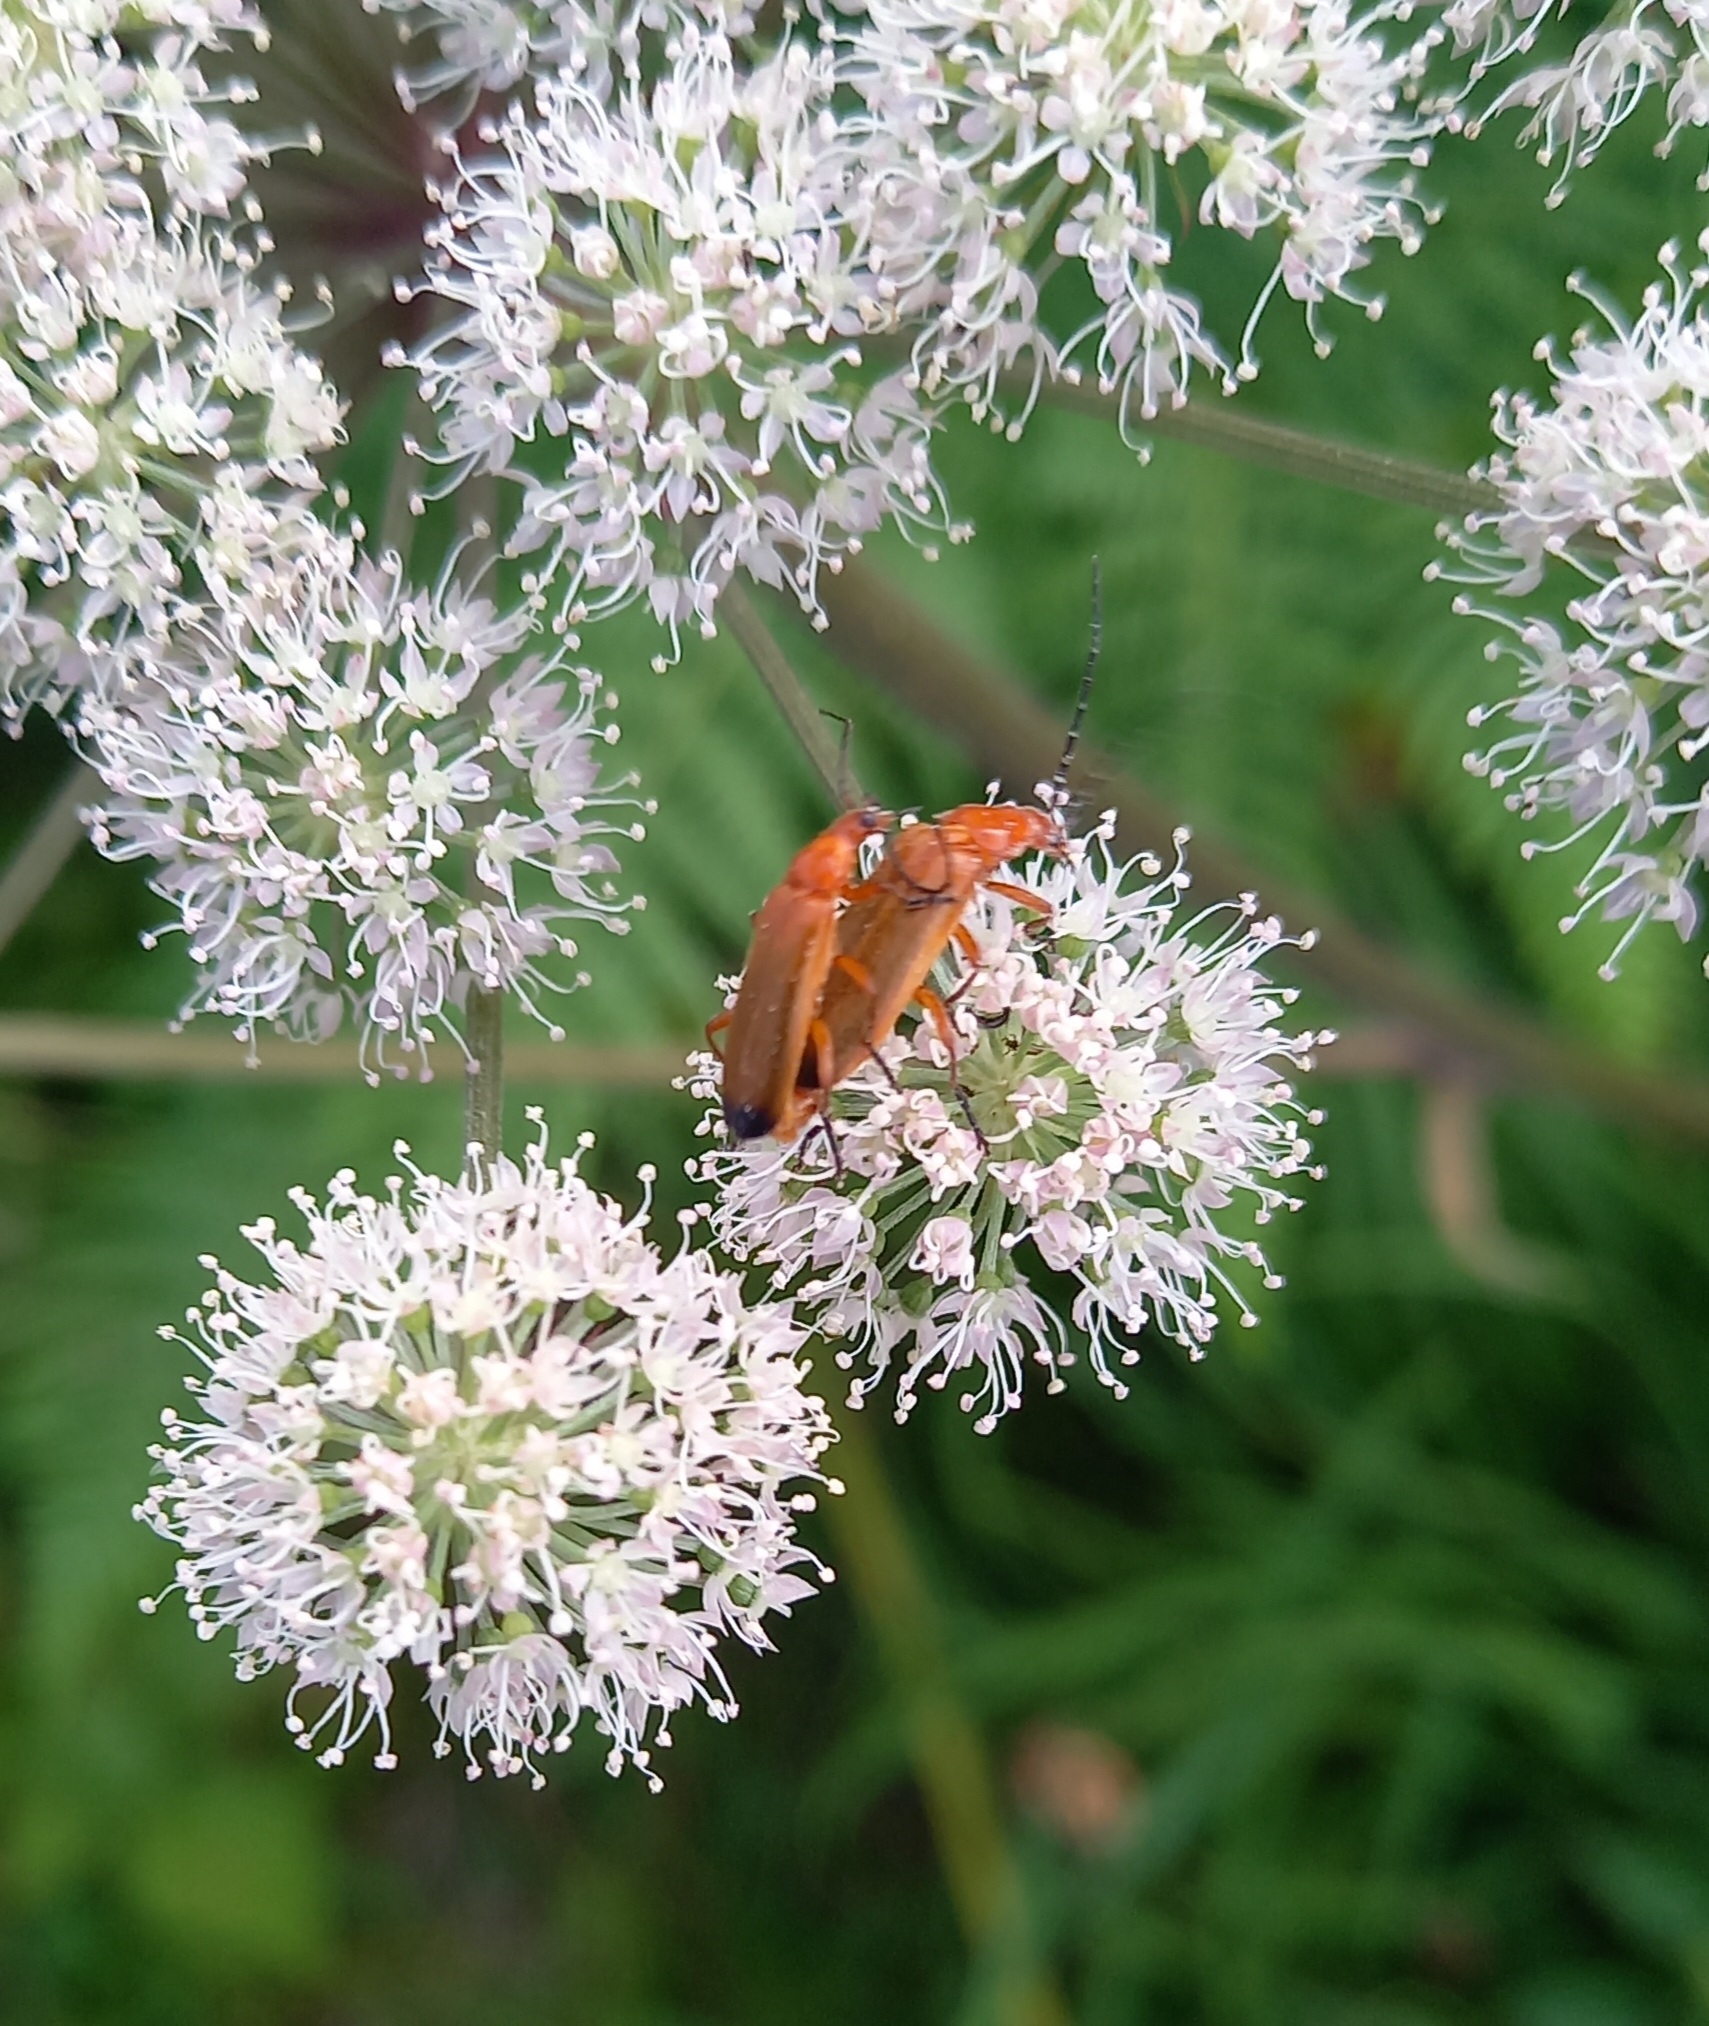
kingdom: Animalia
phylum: Arthropoda
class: Insecta
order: Coleoptera
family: Cantharidae
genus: Rhagonycha
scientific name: Rhagonycha fulva
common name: Common red soldier beetle
